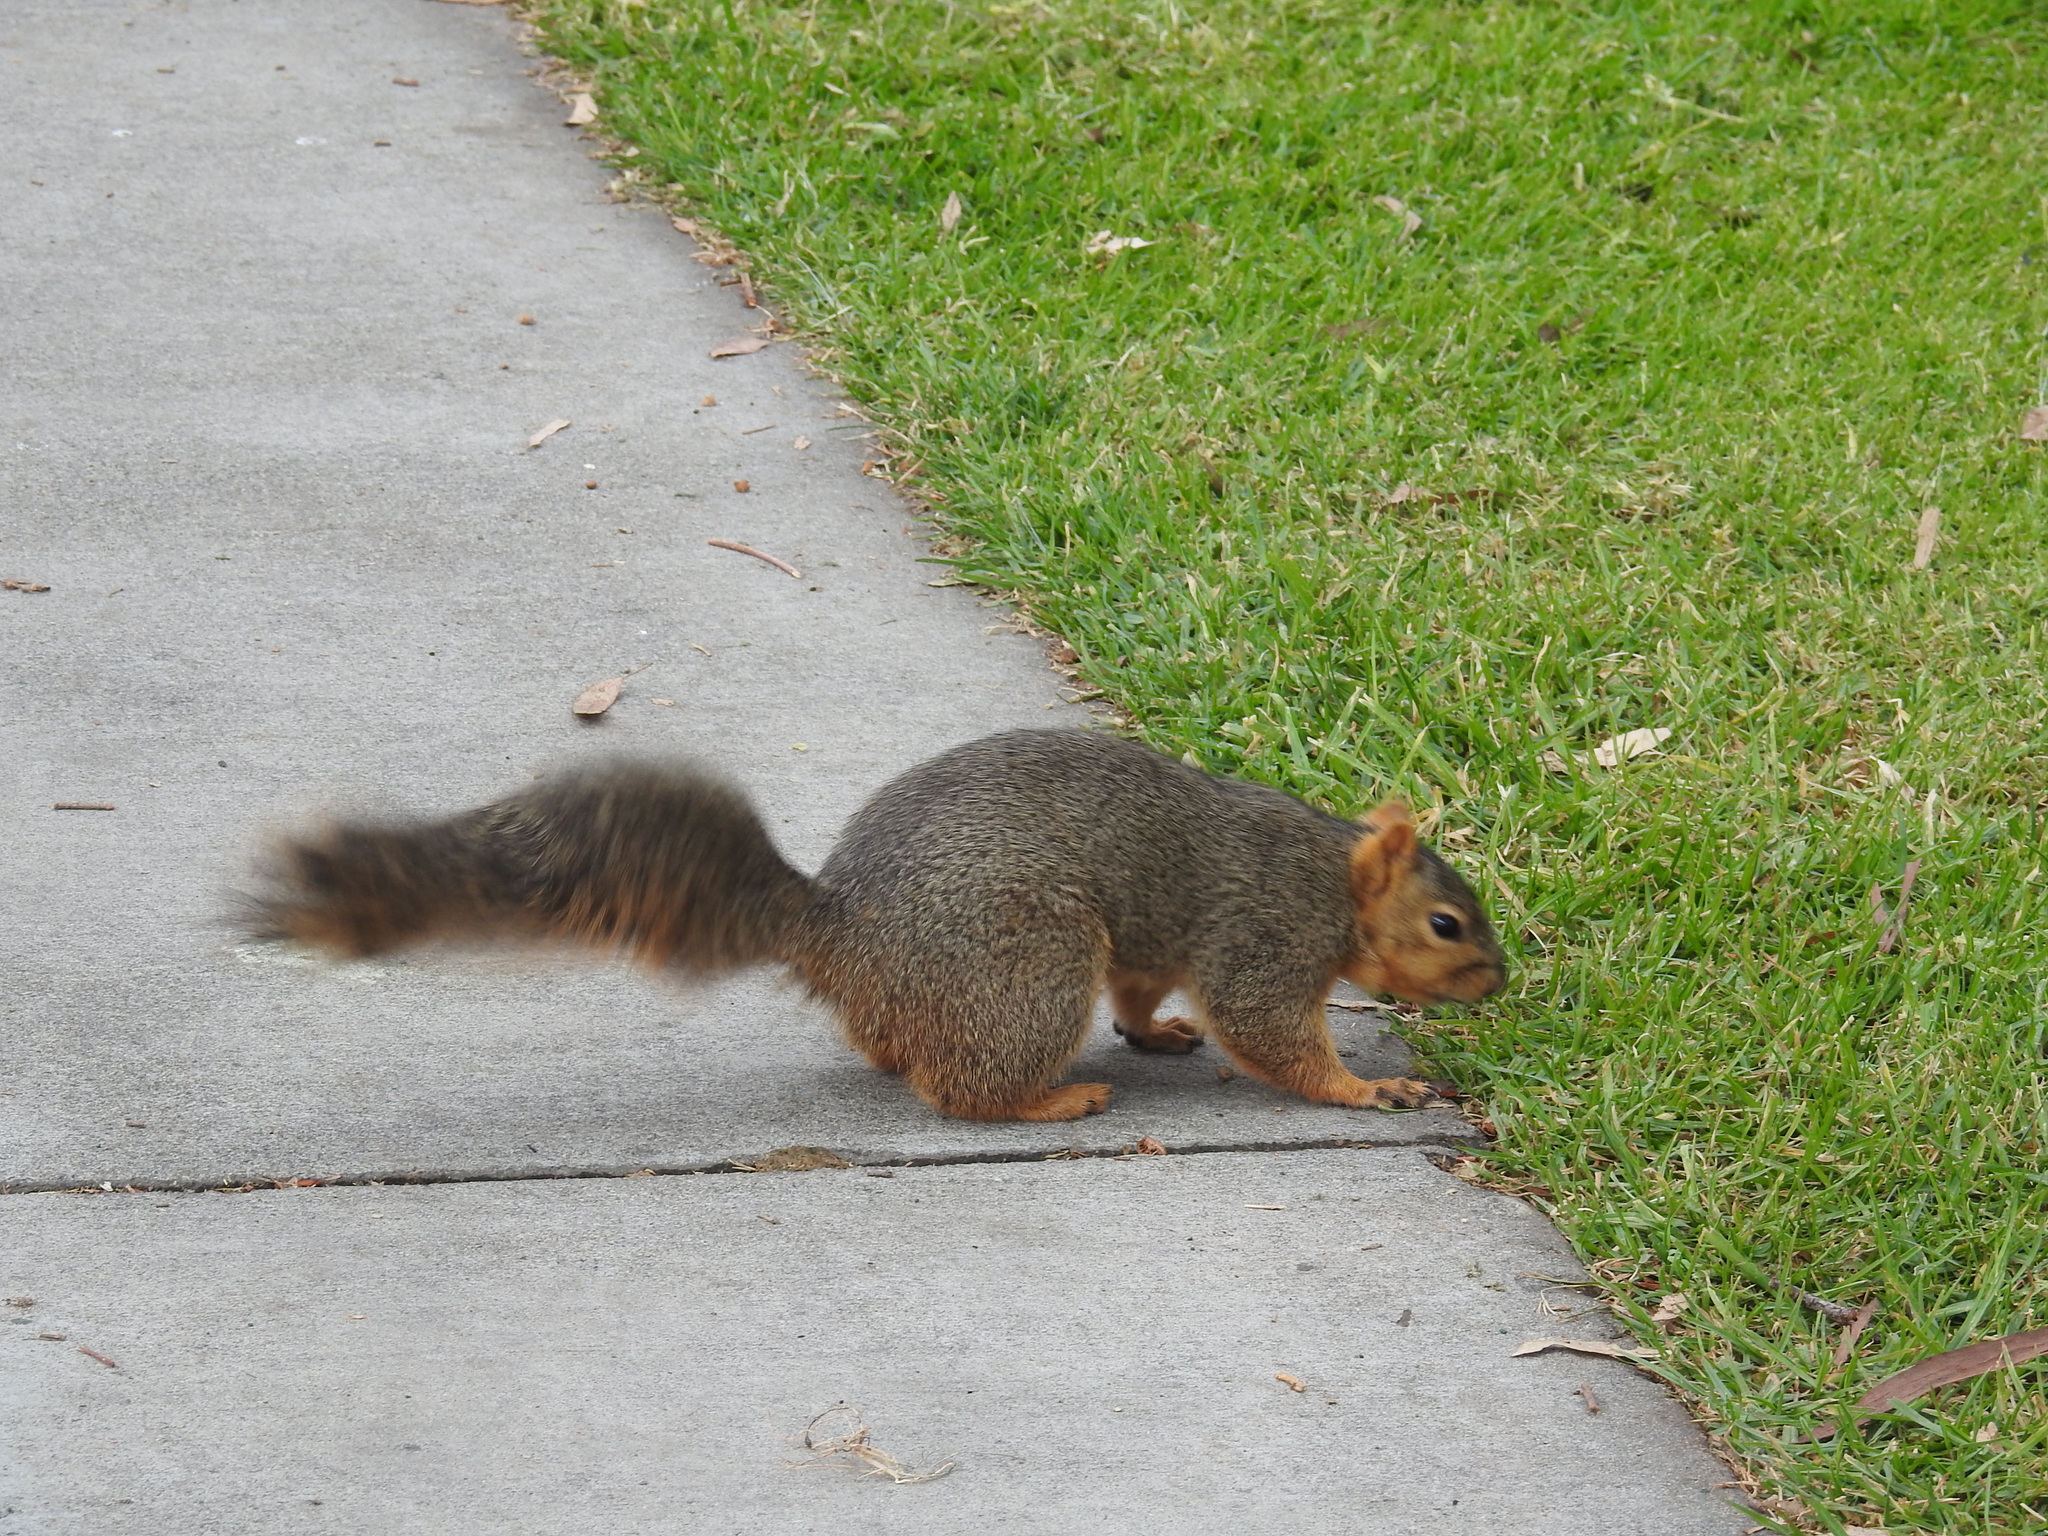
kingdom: Animalia
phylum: Chordata
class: Mammalia
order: Rodentia
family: Sciuridae
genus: Sciurus
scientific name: Sciurus niger
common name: Fox squirrel
